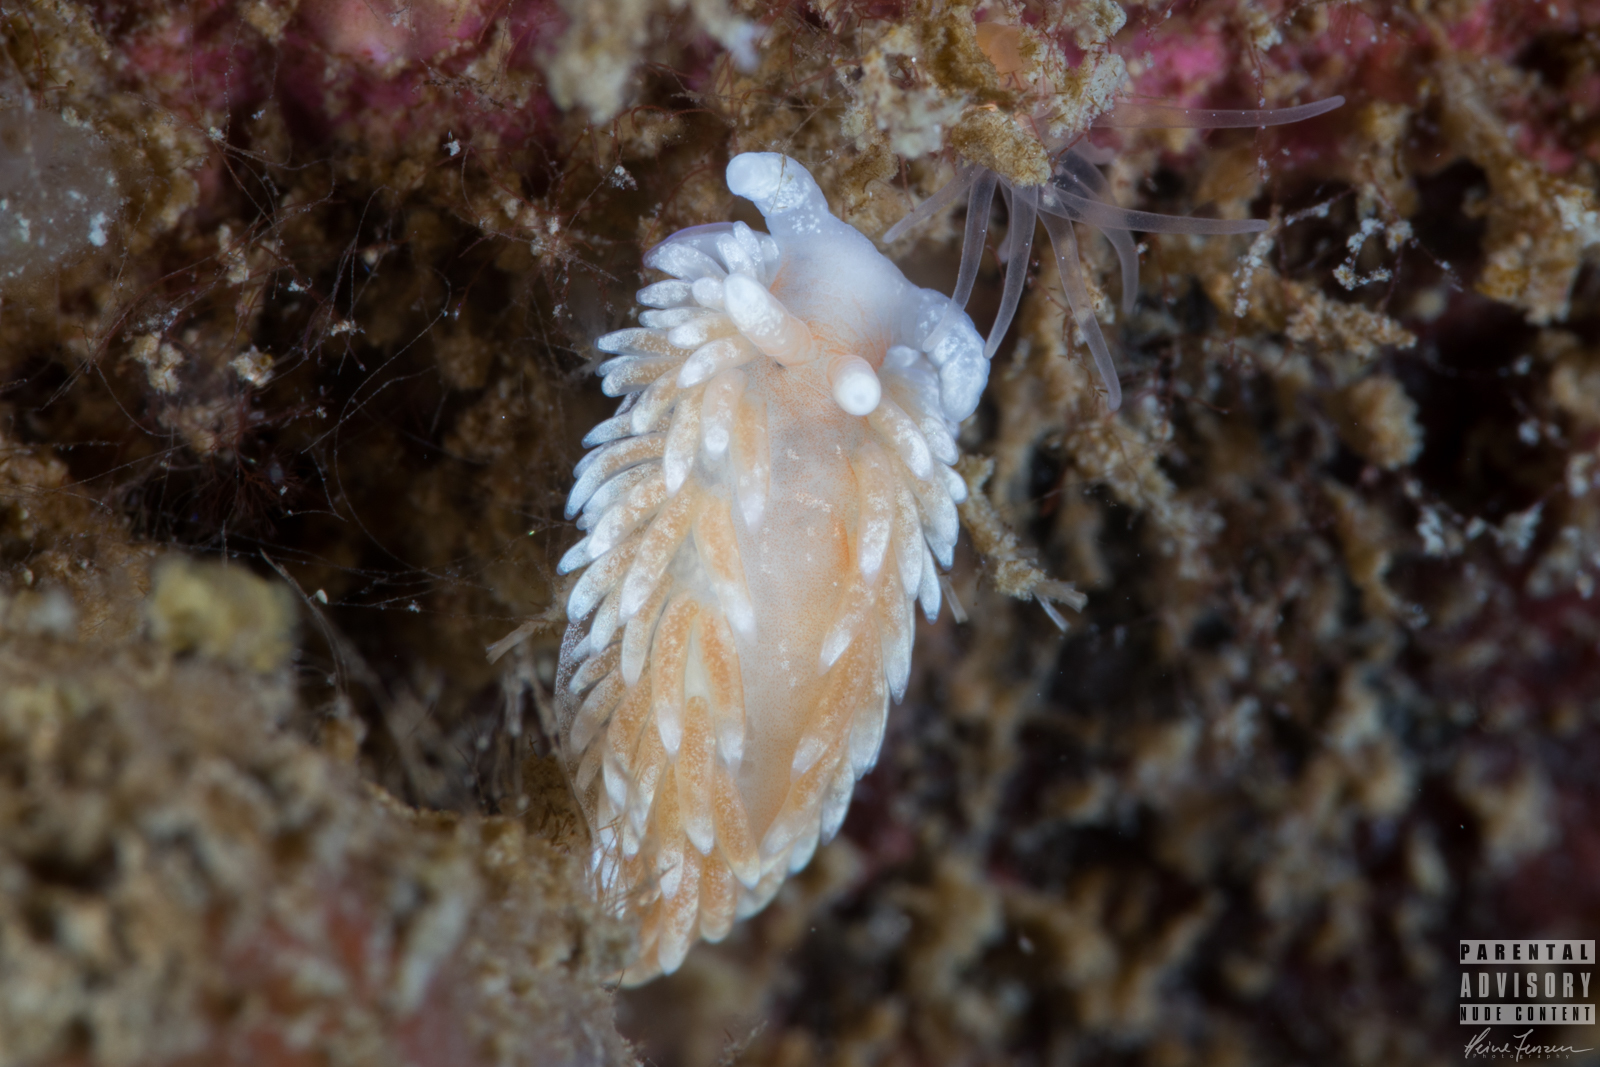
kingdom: Animalia
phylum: Mollusca
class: Gastropoda
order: Nudibranchia
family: Aeolidiidae
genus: Aeolidiella
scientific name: Aeolidiella glauca
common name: Orange-brown aeolid
